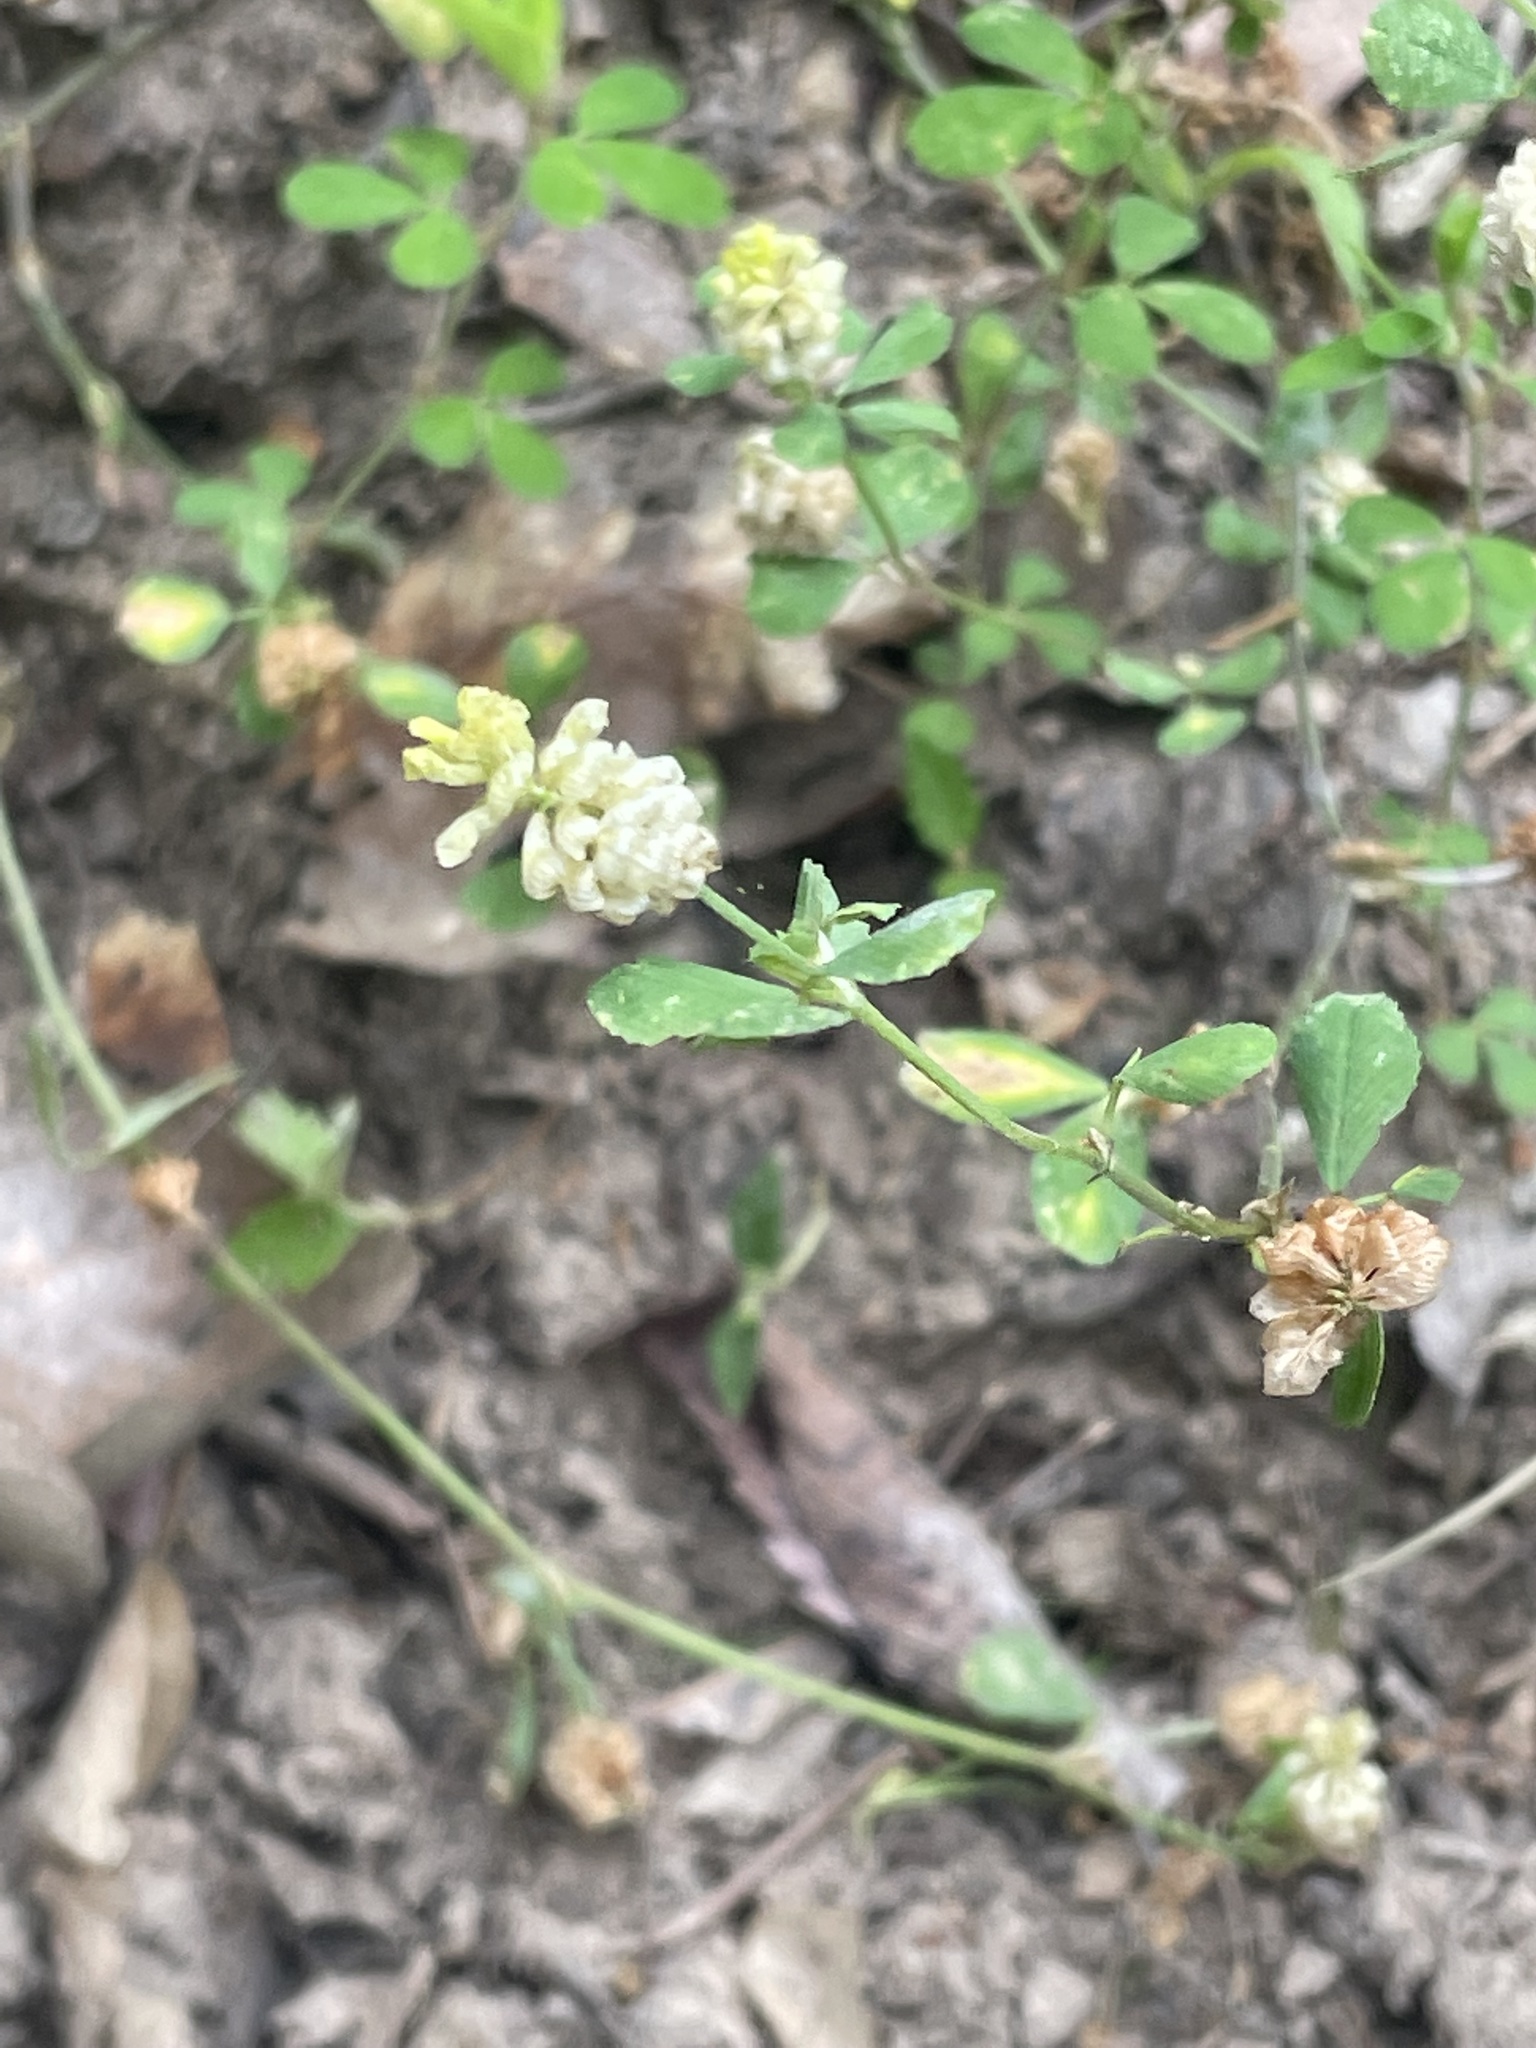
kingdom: Plantae
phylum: Tracheophyta
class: Magnoliopsida
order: Fabales
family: Fabaceae
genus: Trifolium
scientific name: Trifolium campestre
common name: Field clover
